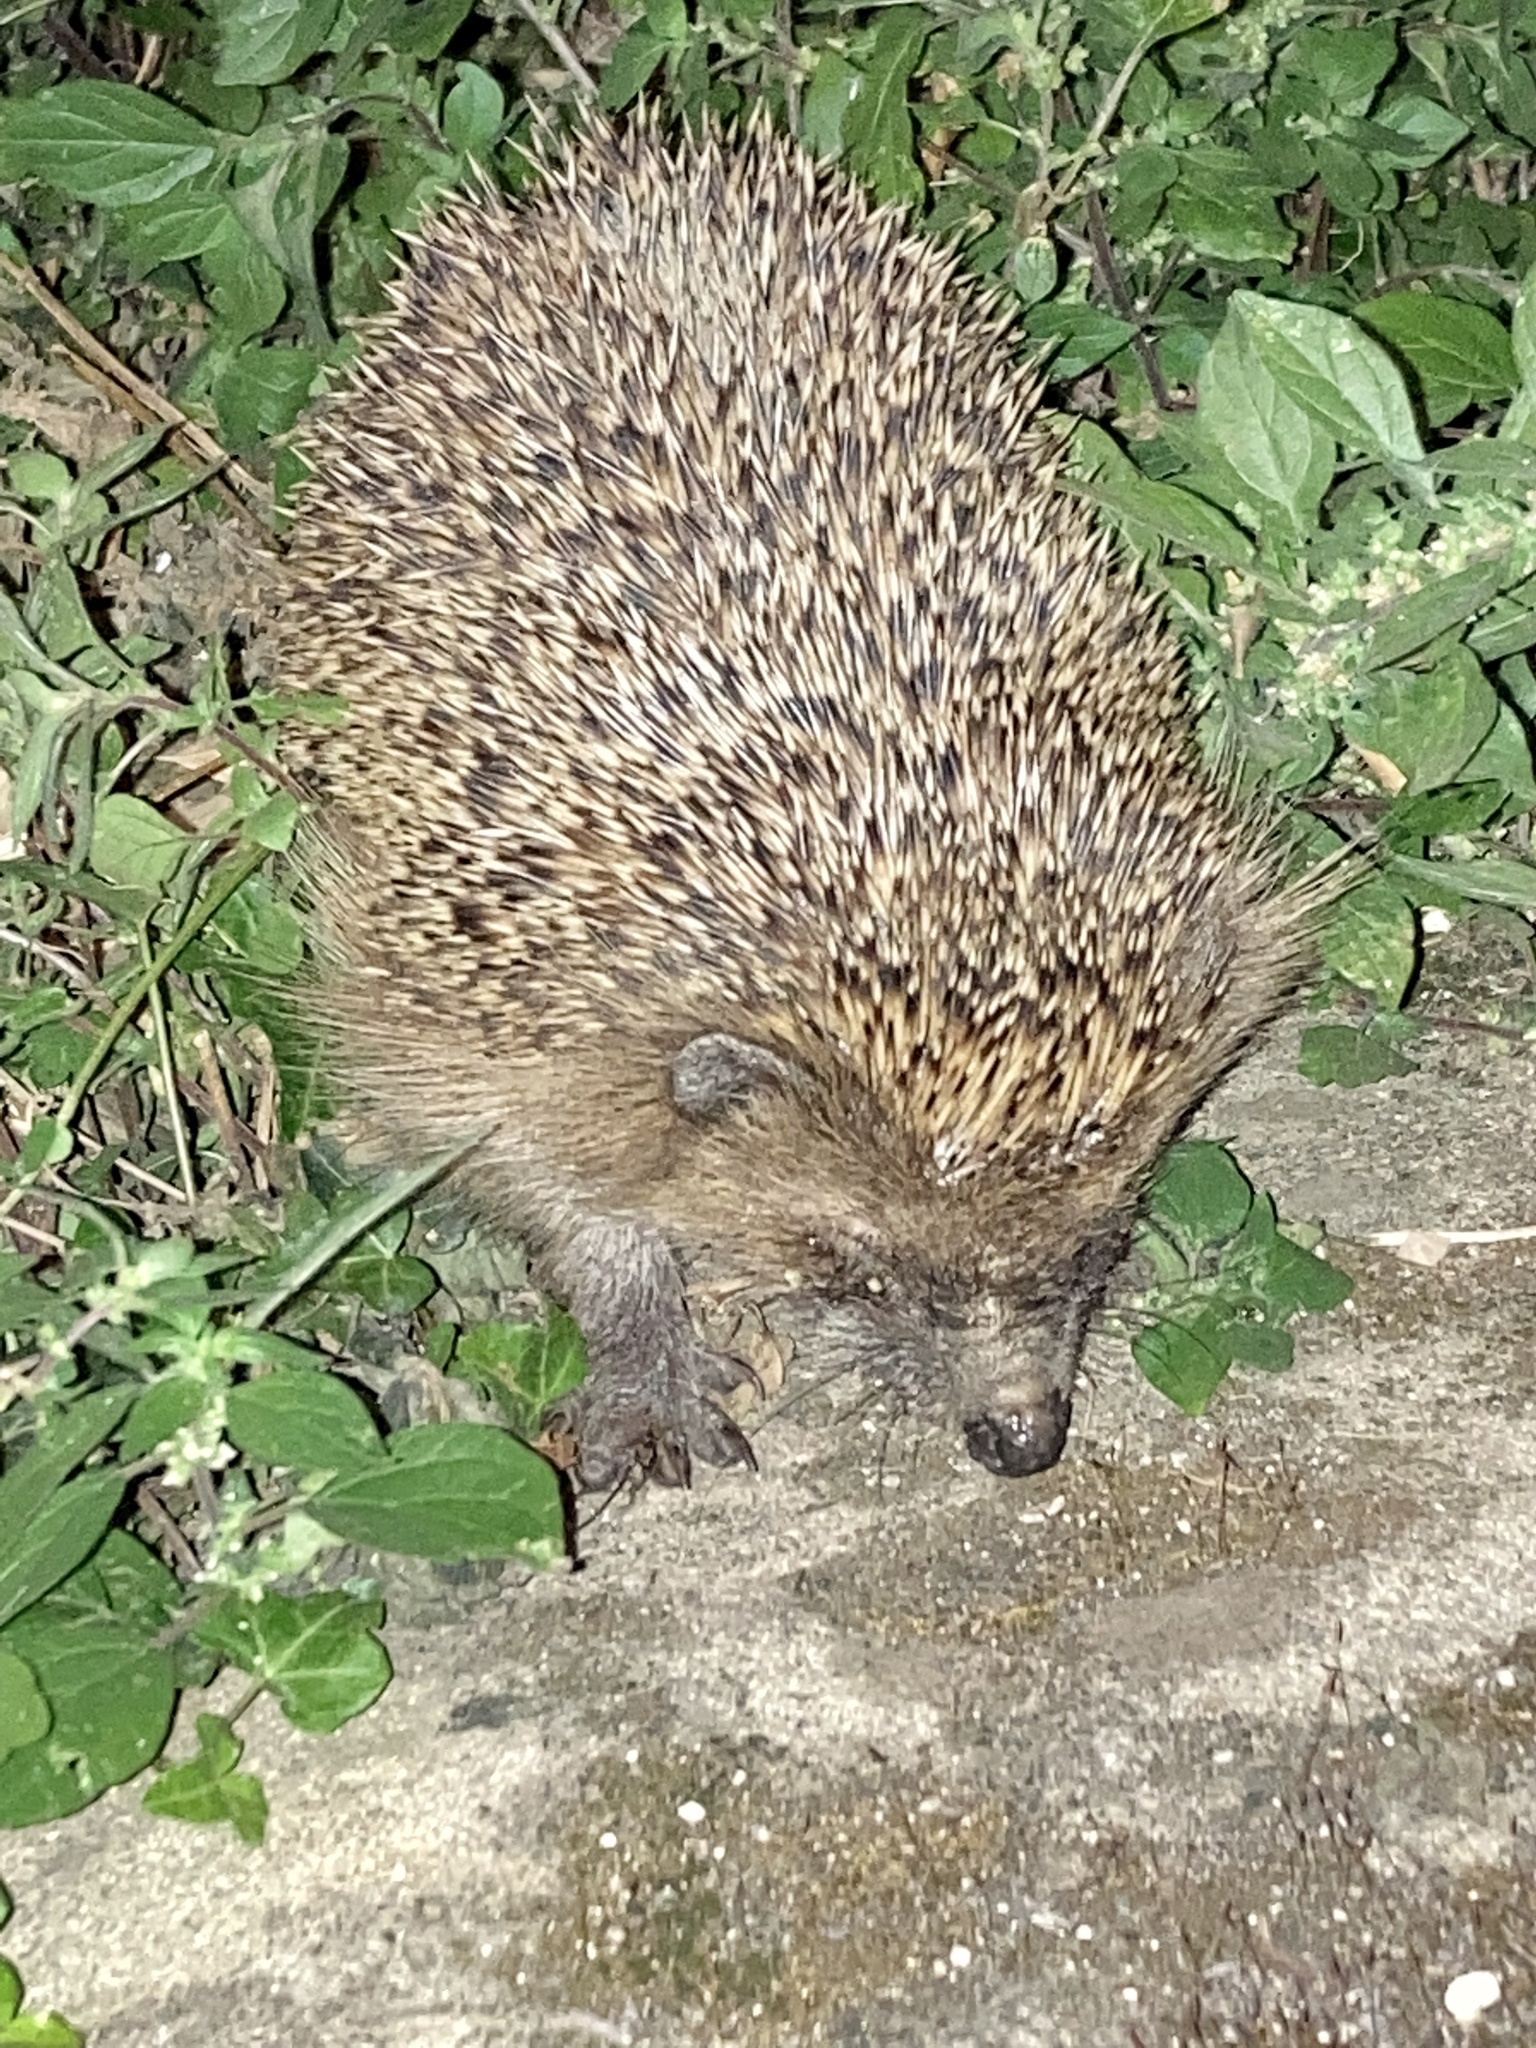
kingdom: Animalia
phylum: Chordata
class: Mammalia
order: Erinaceomorpha
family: Erinaceidae
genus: Erinaceus
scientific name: Erinaceus europaeus
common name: West european hedgehog
